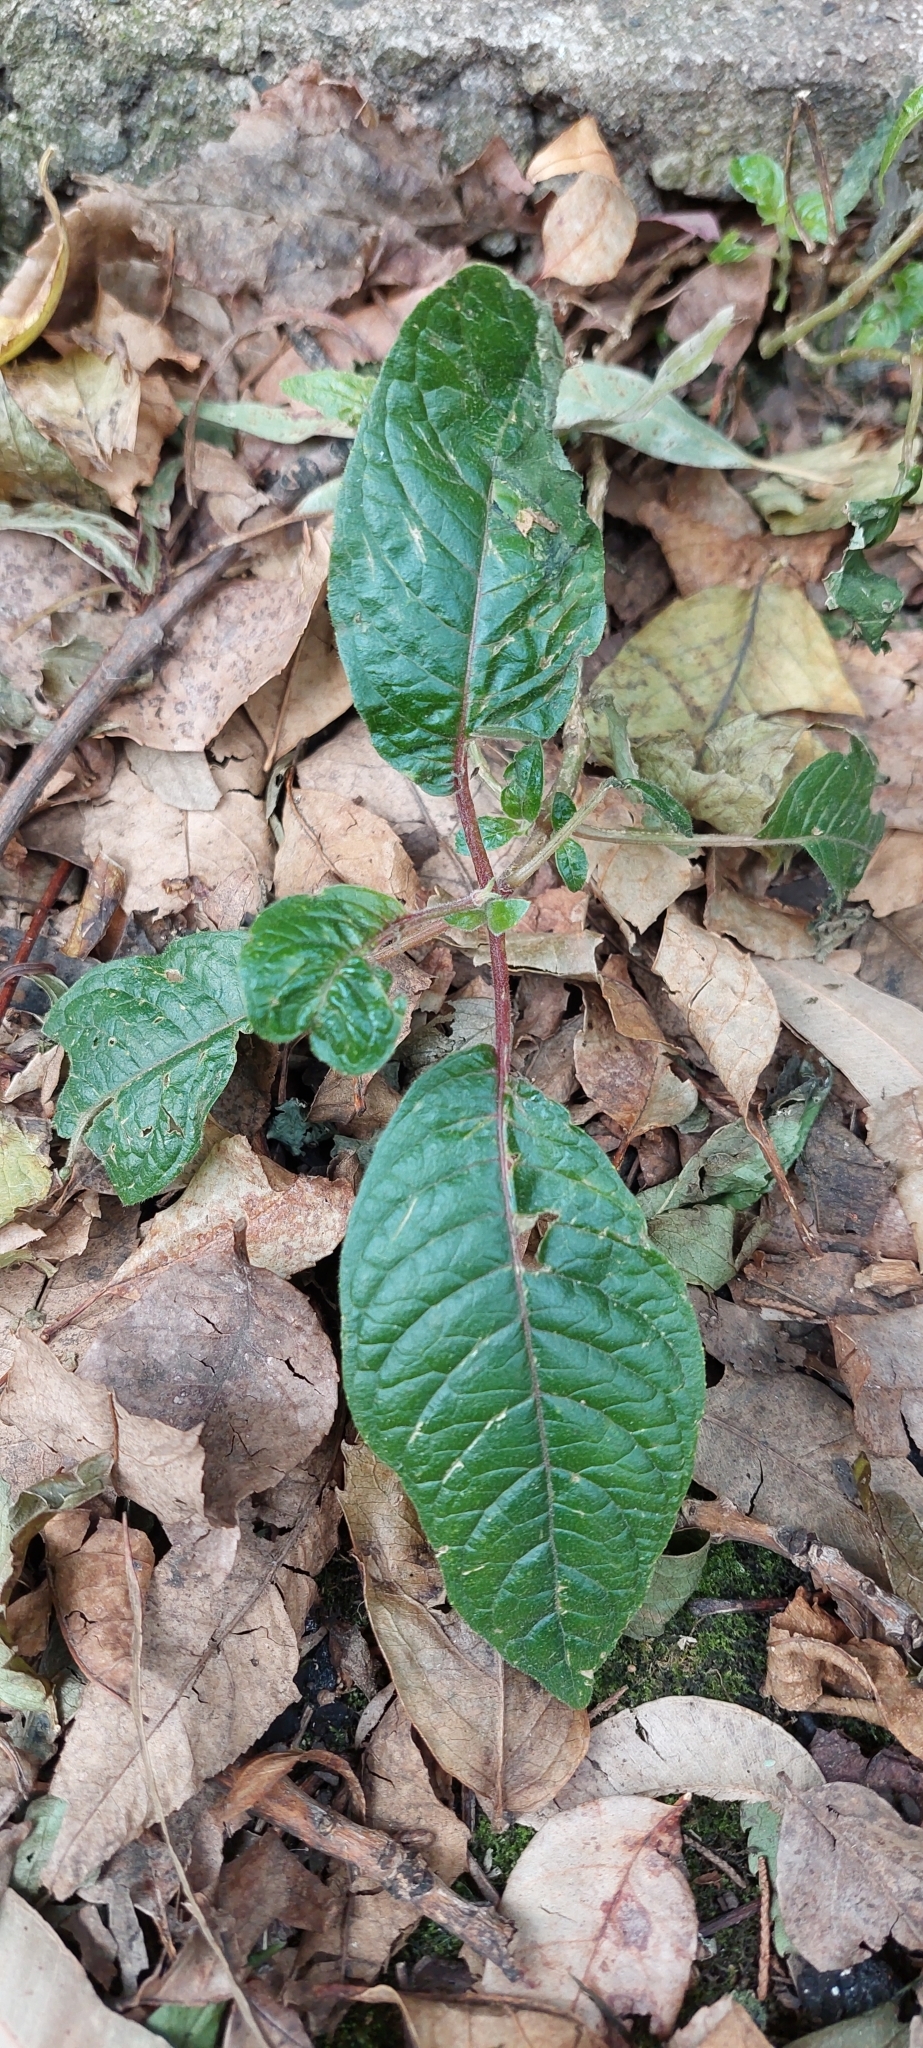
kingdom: Plantae
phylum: Tracheophyta
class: Magnoliopsida
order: Myrtales
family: Onagraceae
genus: Fuchsia
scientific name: Fuchsia boliviana
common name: Bolivian fuchsia
